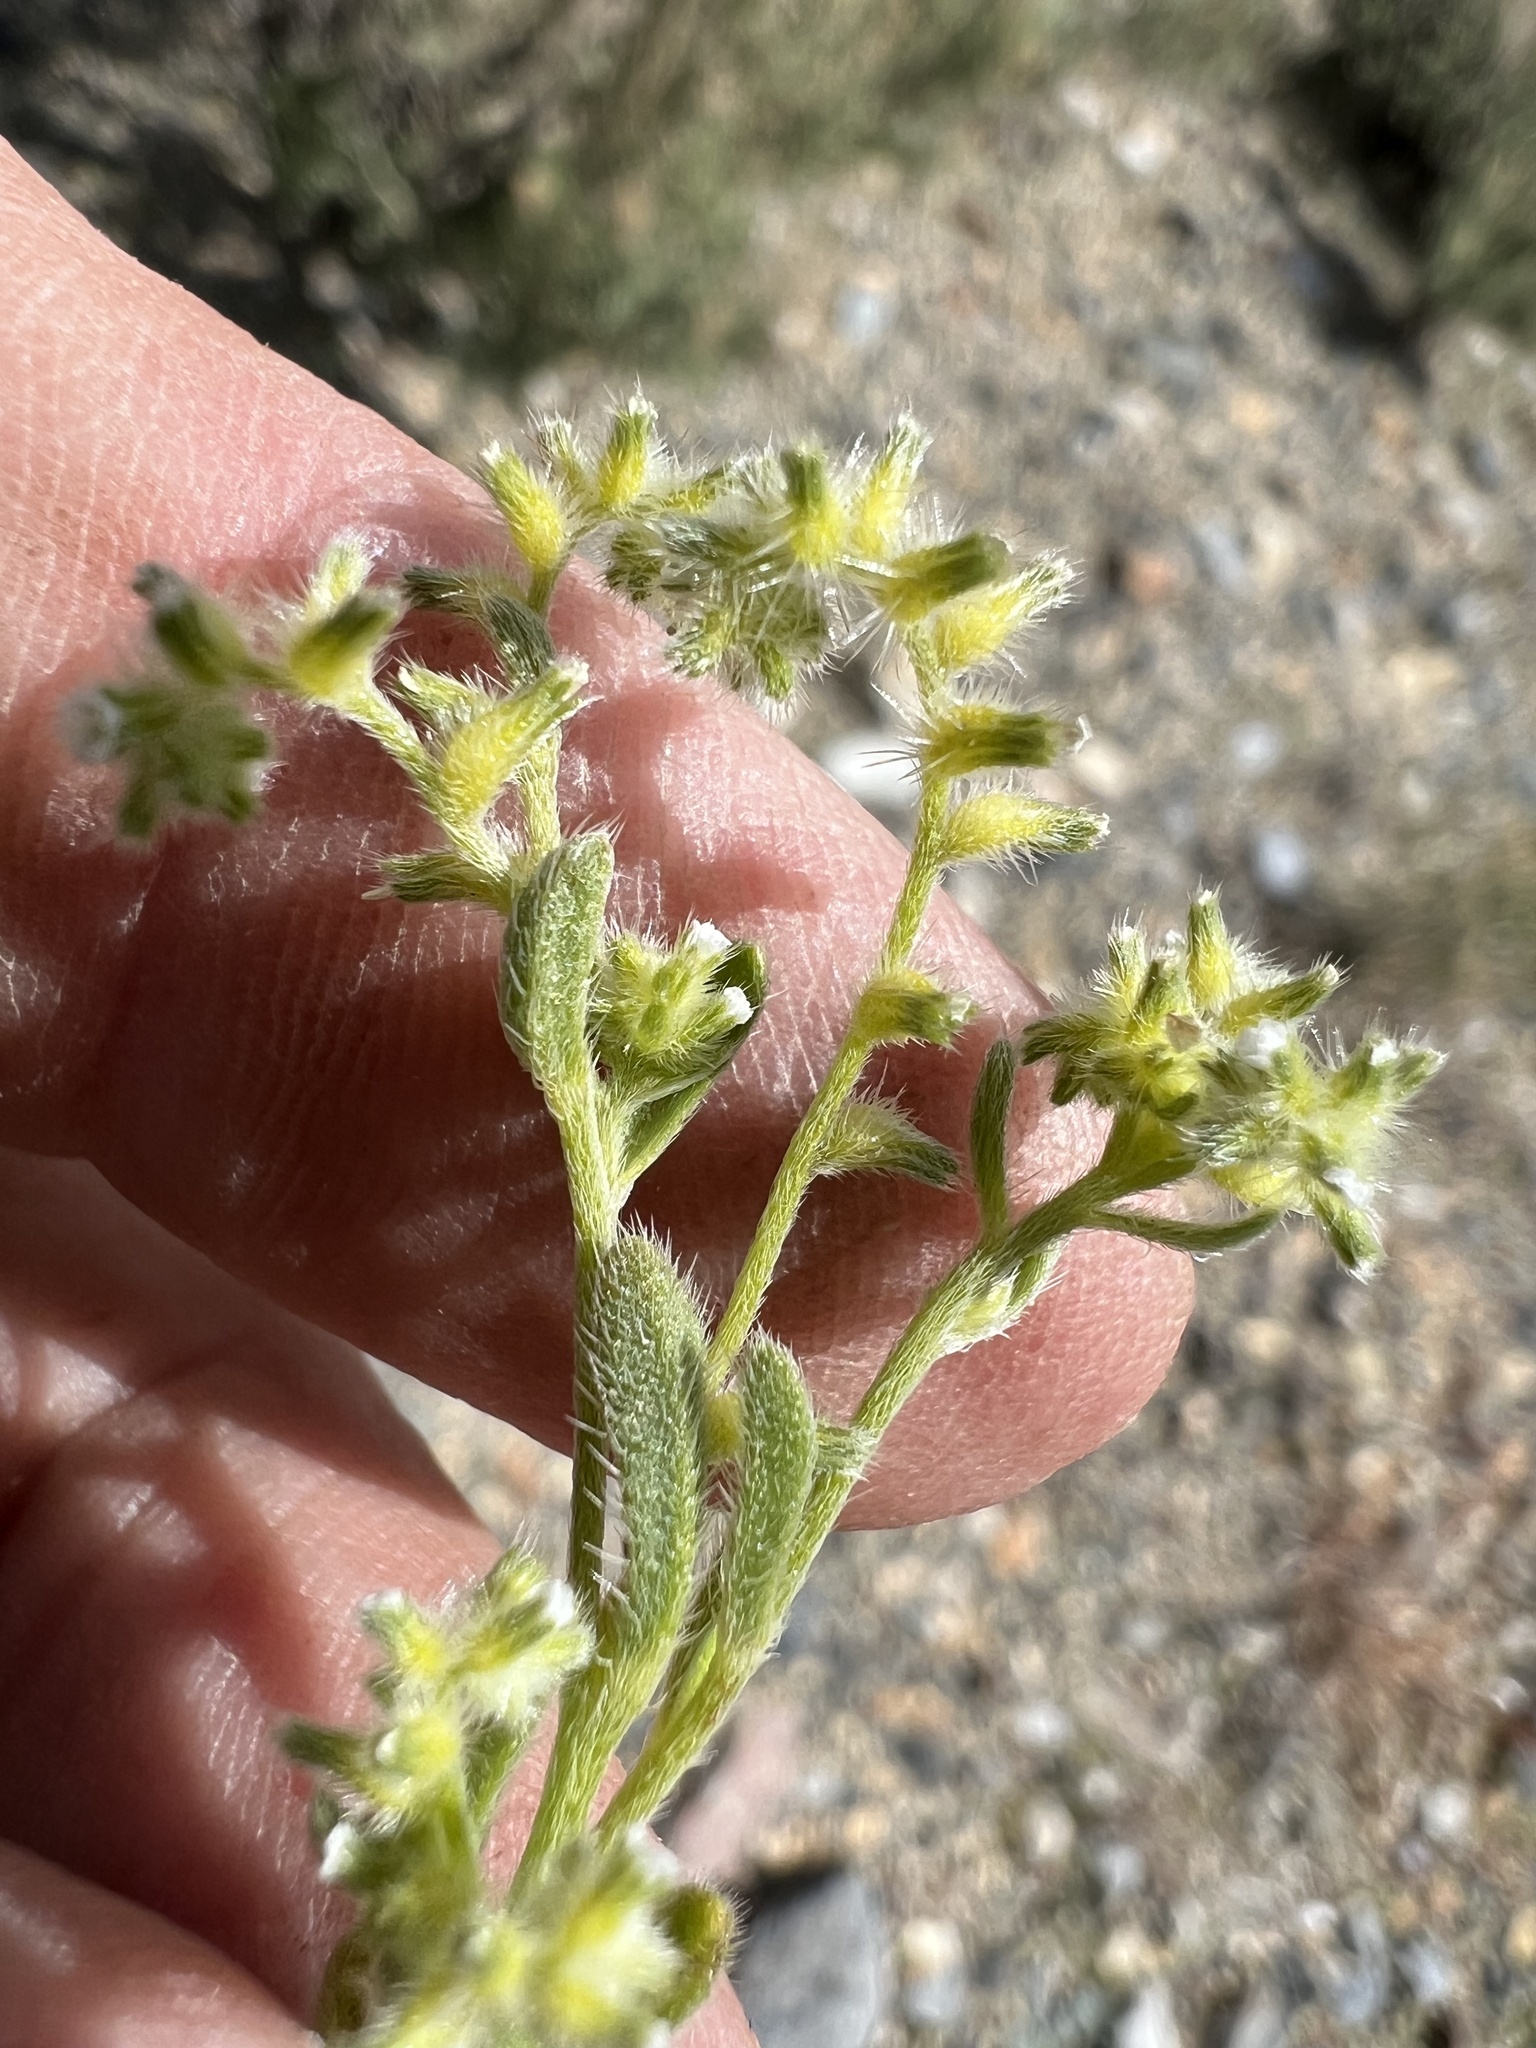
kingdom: Plantae
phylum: Tracheophyta
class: Magnoliopsida
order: Boraginales
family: Boraginaceae
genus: Cryptantha
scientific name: Cryptantha recurvata
